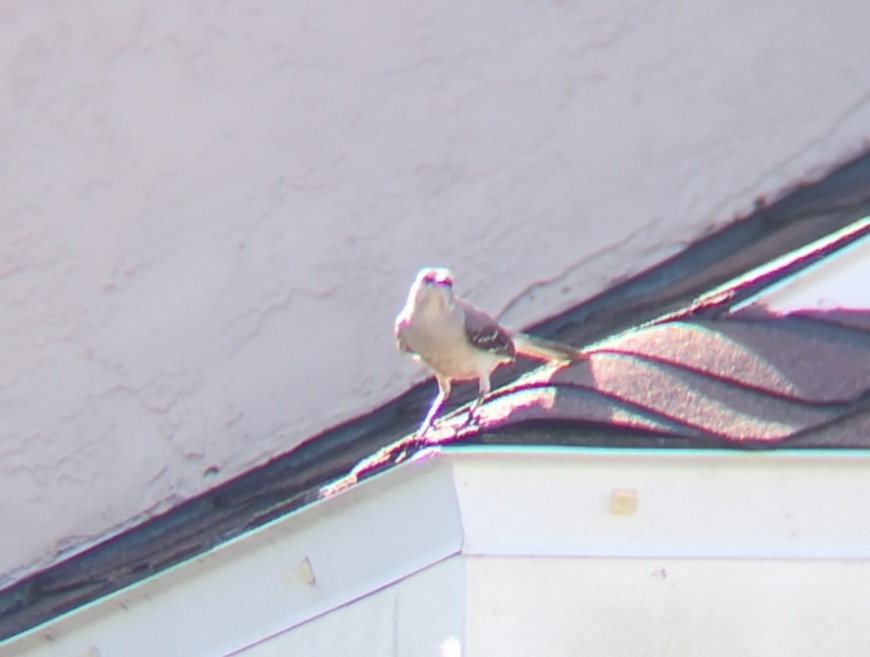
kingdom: Animalia
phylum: Chordata
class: Aves
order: Passeriformes
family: Mimidae
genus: Mimus
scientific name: Mimus polyglottos
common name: Northern mockingbird
